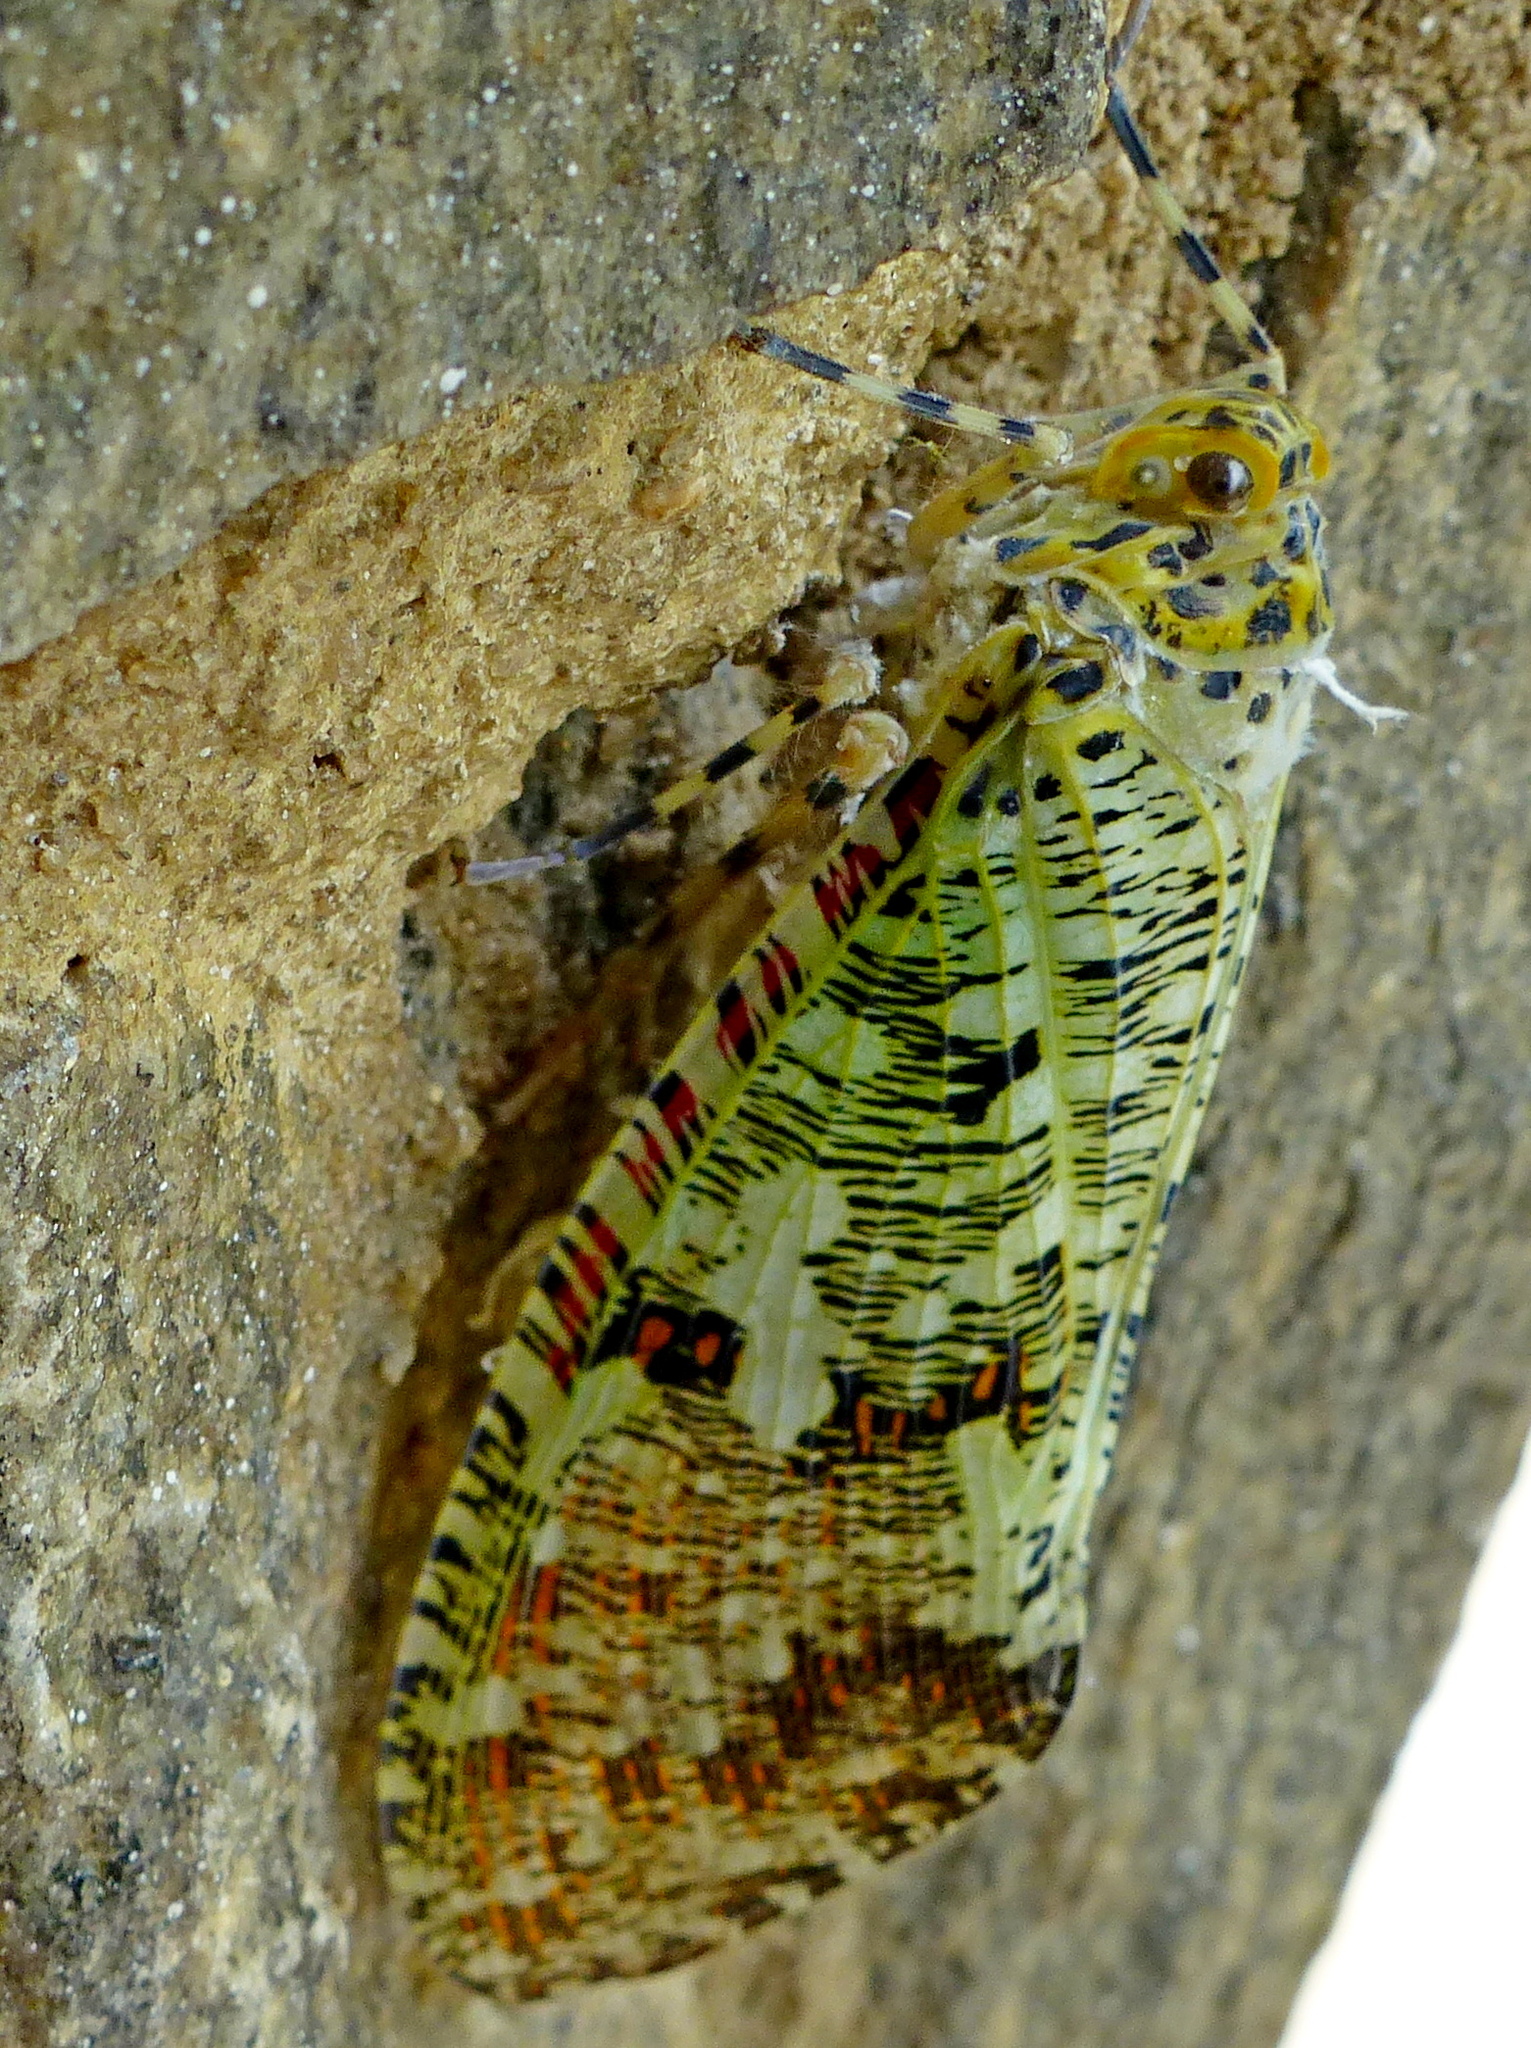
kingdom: Animalia
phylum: Arthropoda
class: Insecta
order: Hemiptera
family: Fulgoridae
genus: Phenax
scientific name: Phenax variegata
